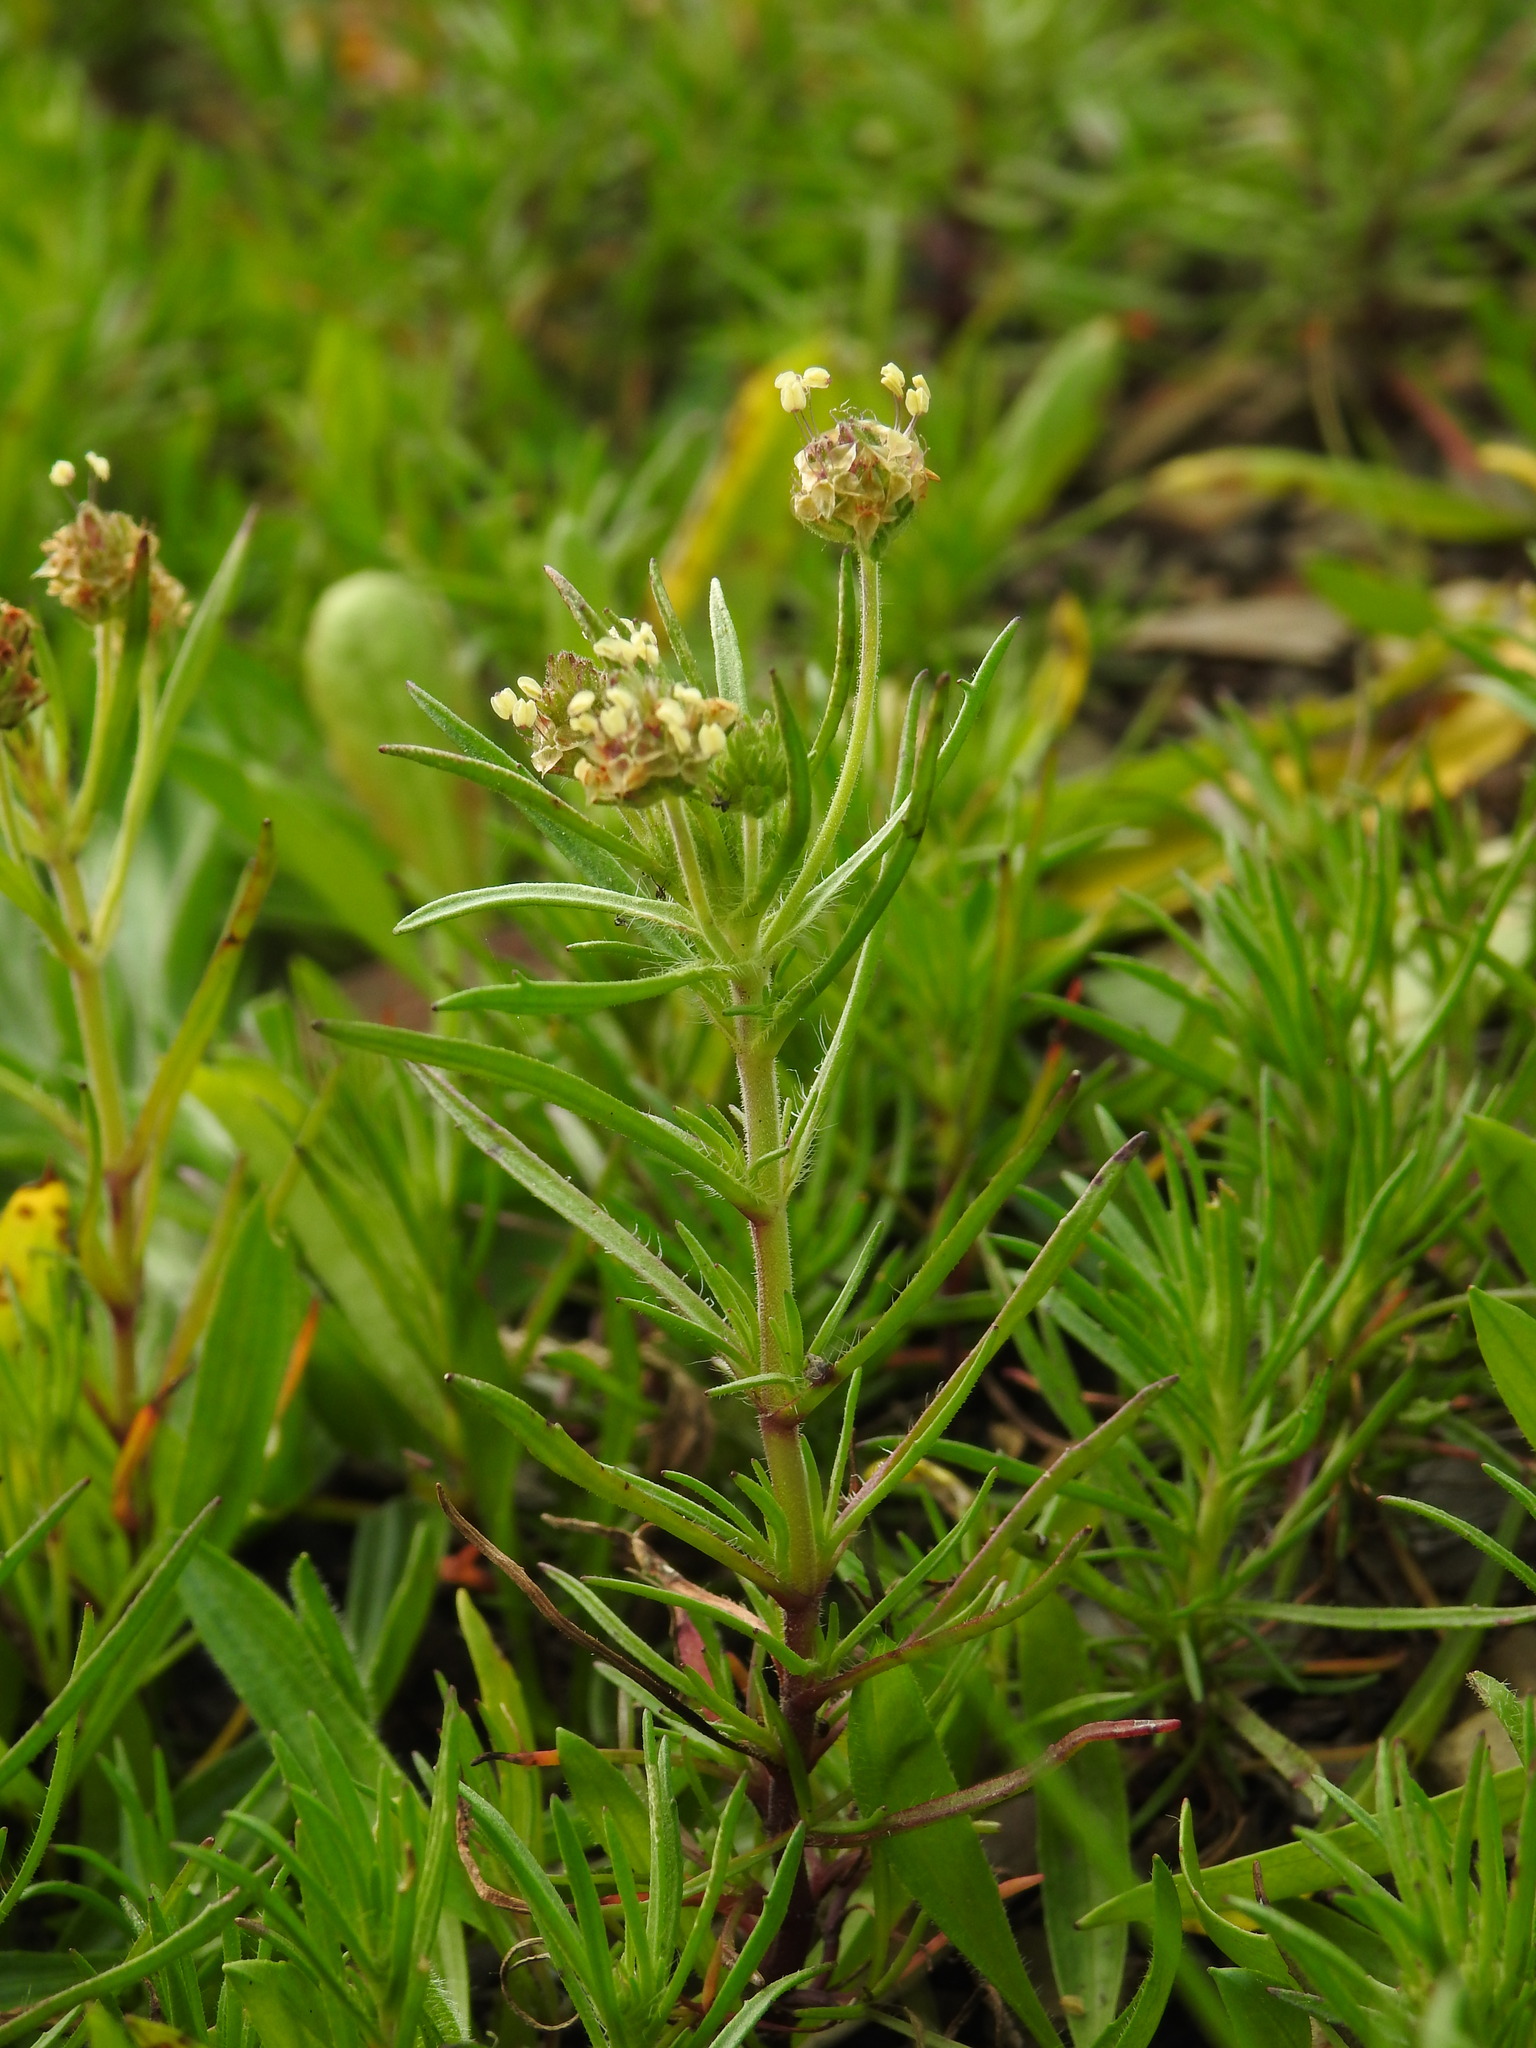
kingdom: Plantae
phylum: Tracheophyta
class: Magnoliopsida
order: Lamiales
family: Plantaginaceae
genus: Plantago
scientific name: Plantago afra
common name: Glandular plantain
